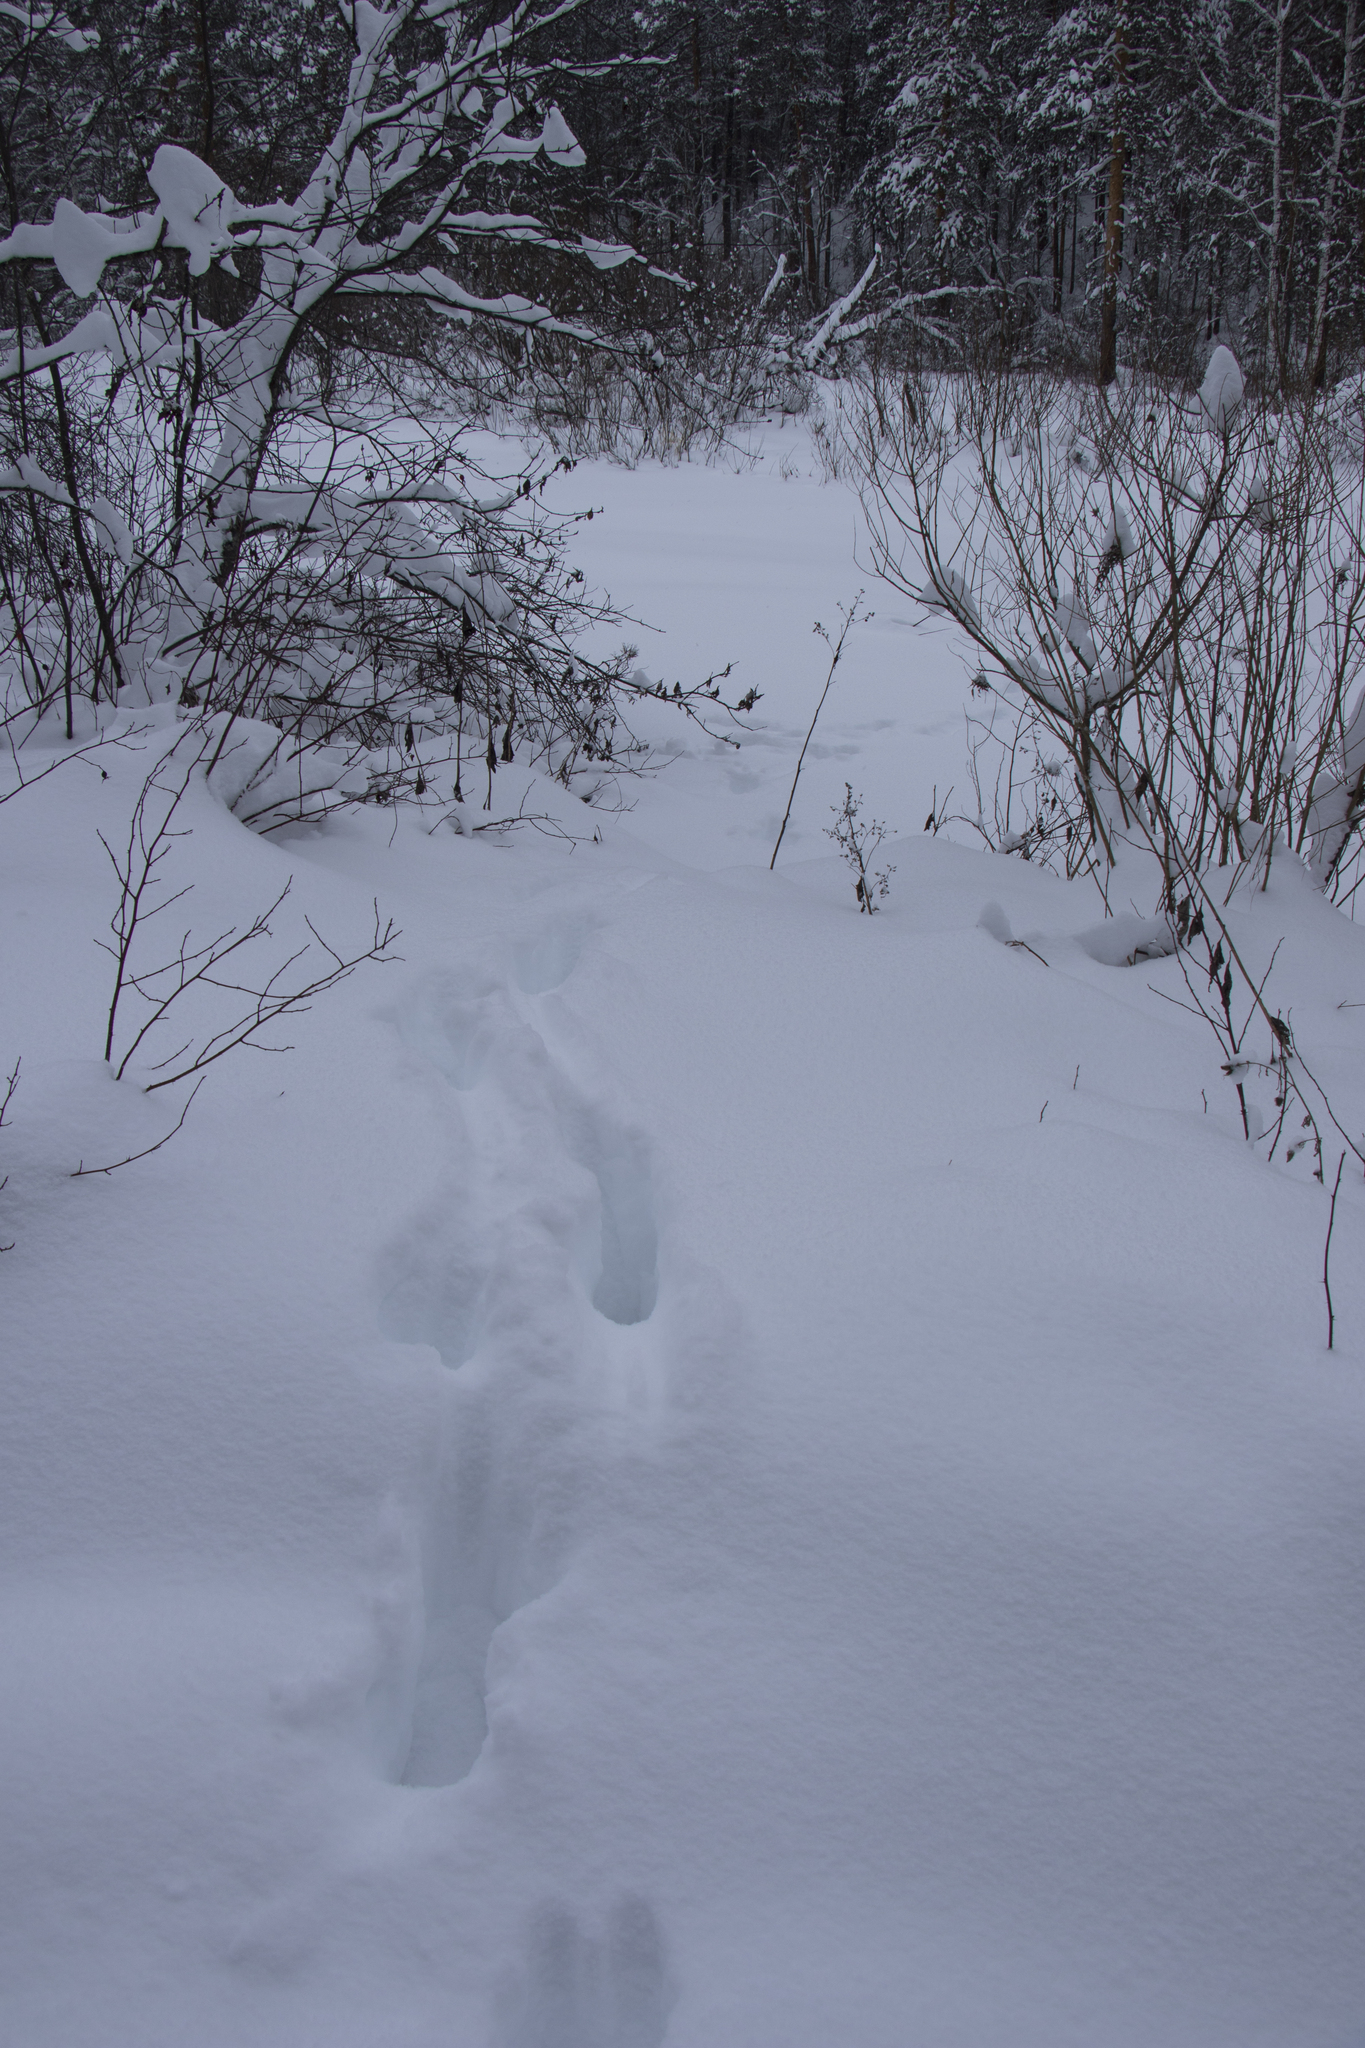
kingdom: Animalia
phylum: Chordata
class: Mammalia
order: Artiodactyla
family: Cervidae
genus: Alces
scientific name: Alces alces
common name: Moose
